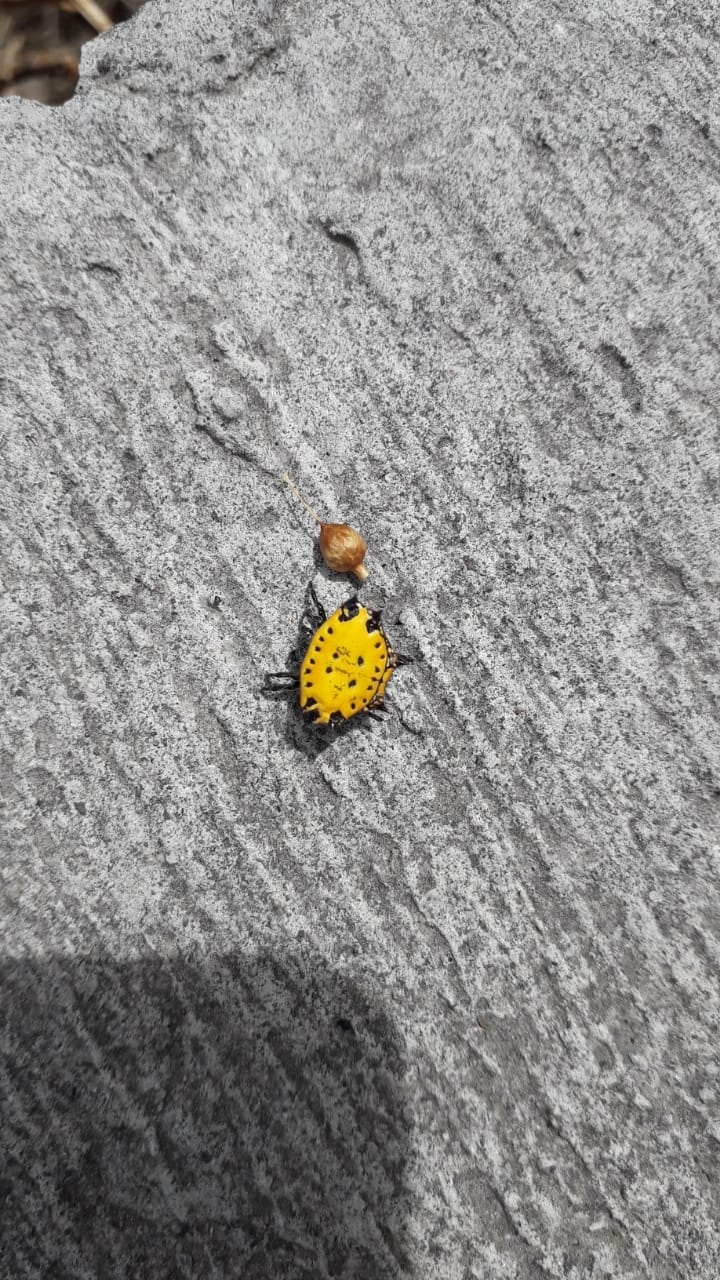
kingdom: Animalia
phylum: Arthropoda
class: Arachnida
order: Araneae
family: Araneidae
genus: Gasteracantha
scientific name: Gasteracantha cancriformis
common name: Orb weavers
